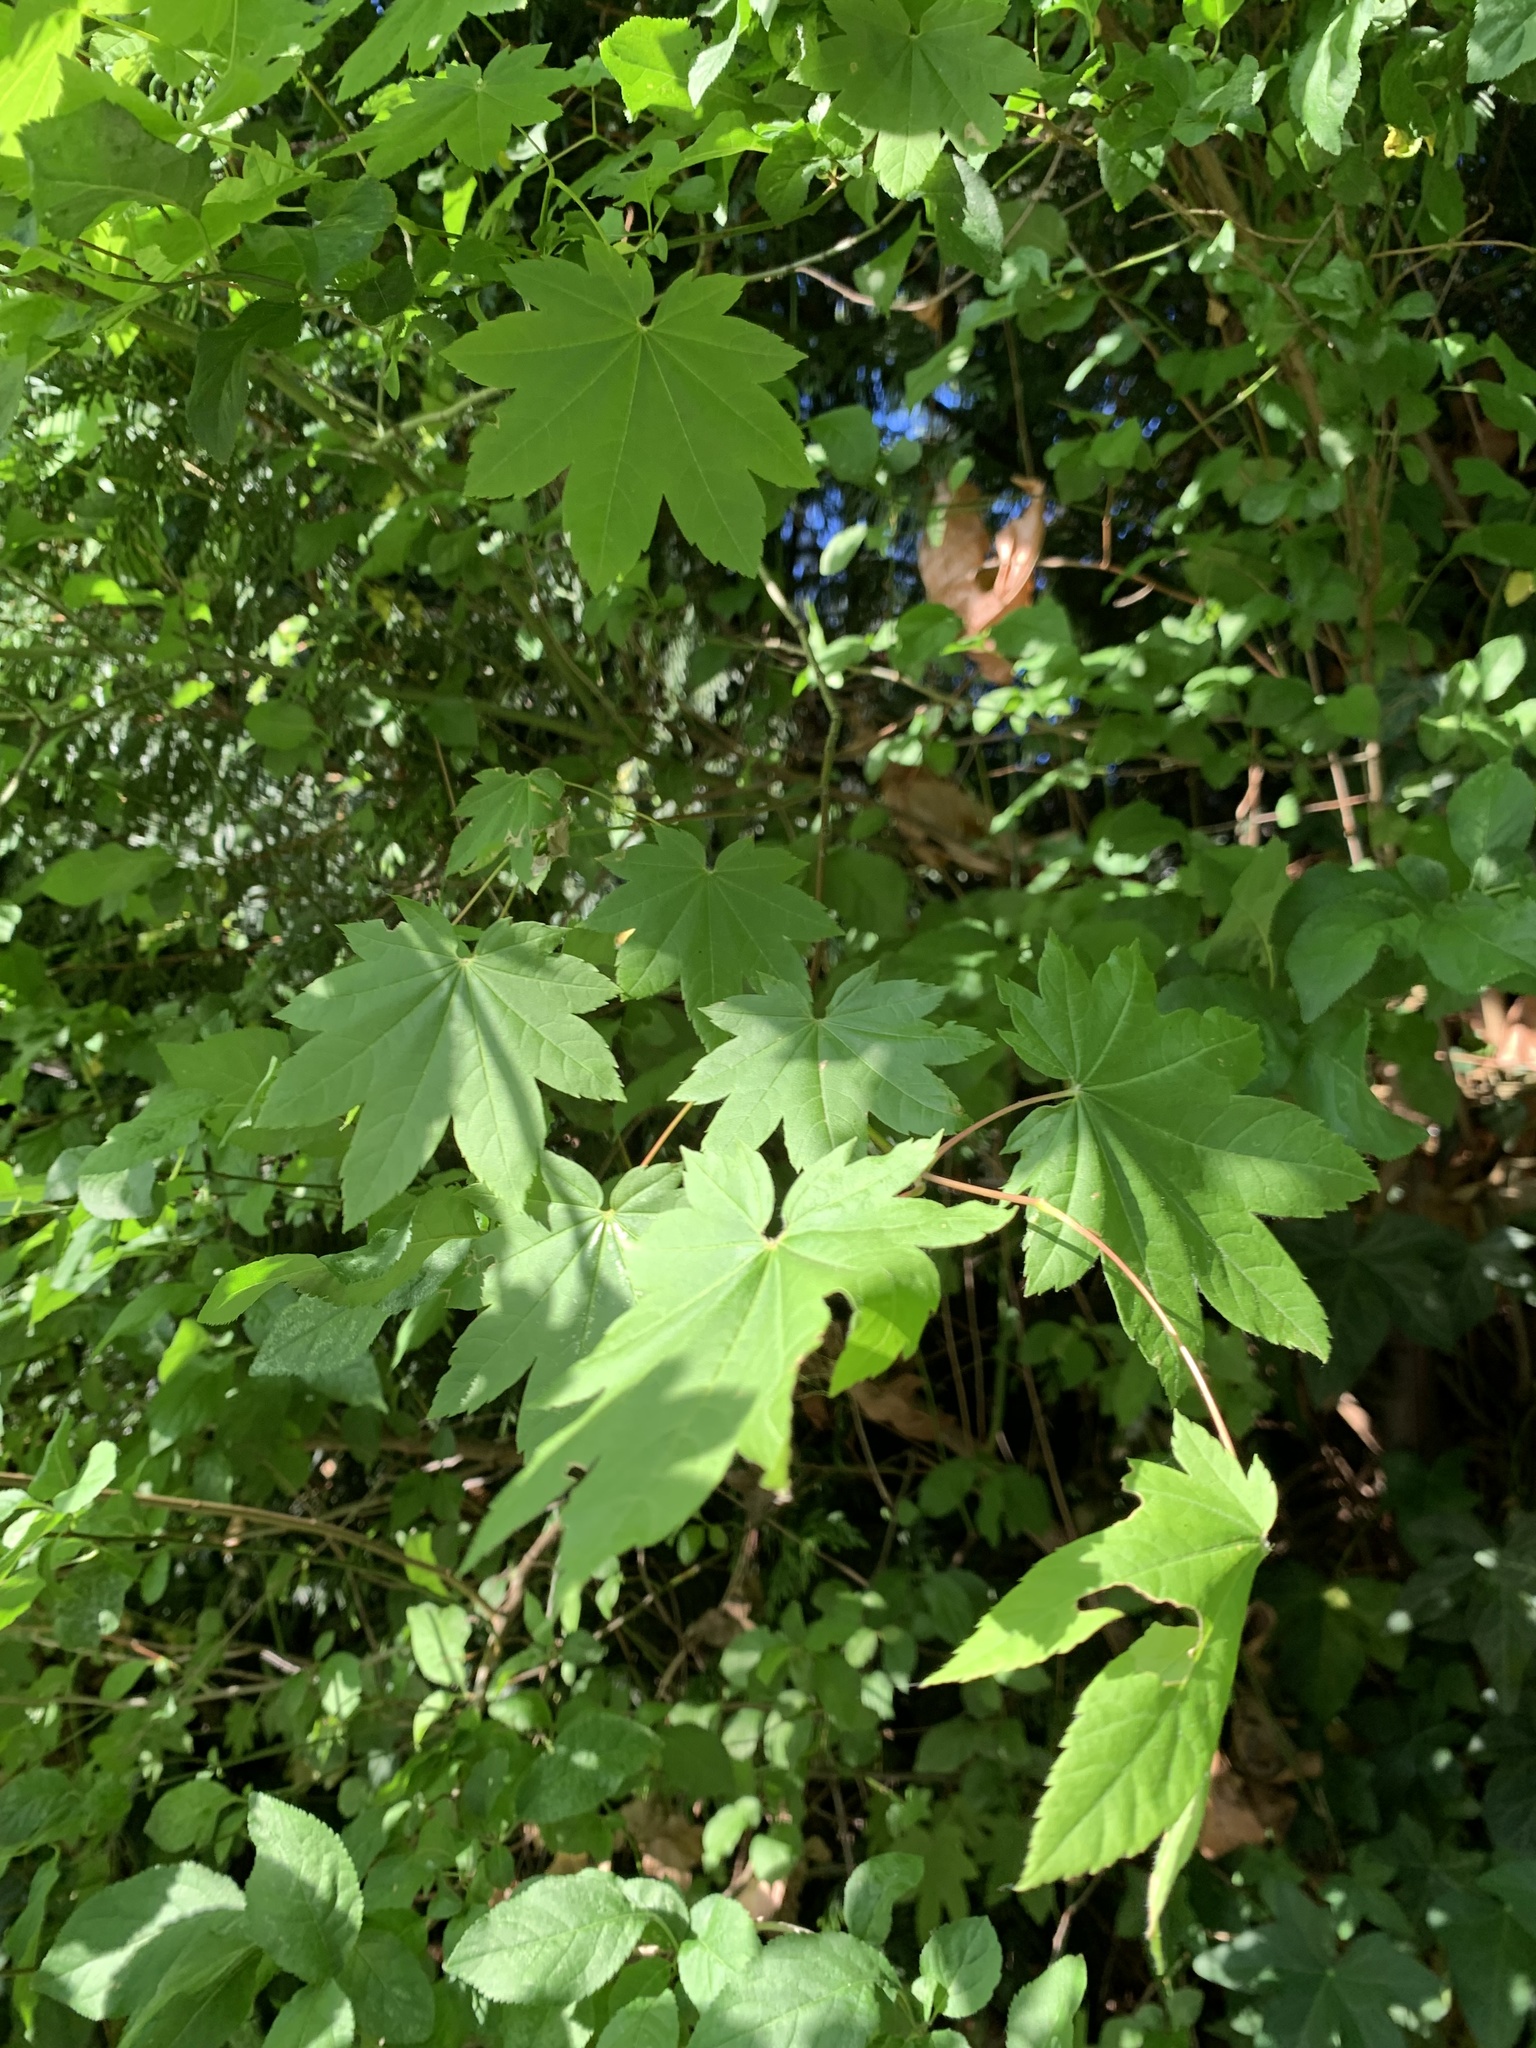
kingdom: Plantae
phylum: Tracheophyta
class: Magnoliopsida
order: Sapindales
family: Sapindaceae
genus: Acer
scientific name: Acer circinatum
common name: Vine maple
